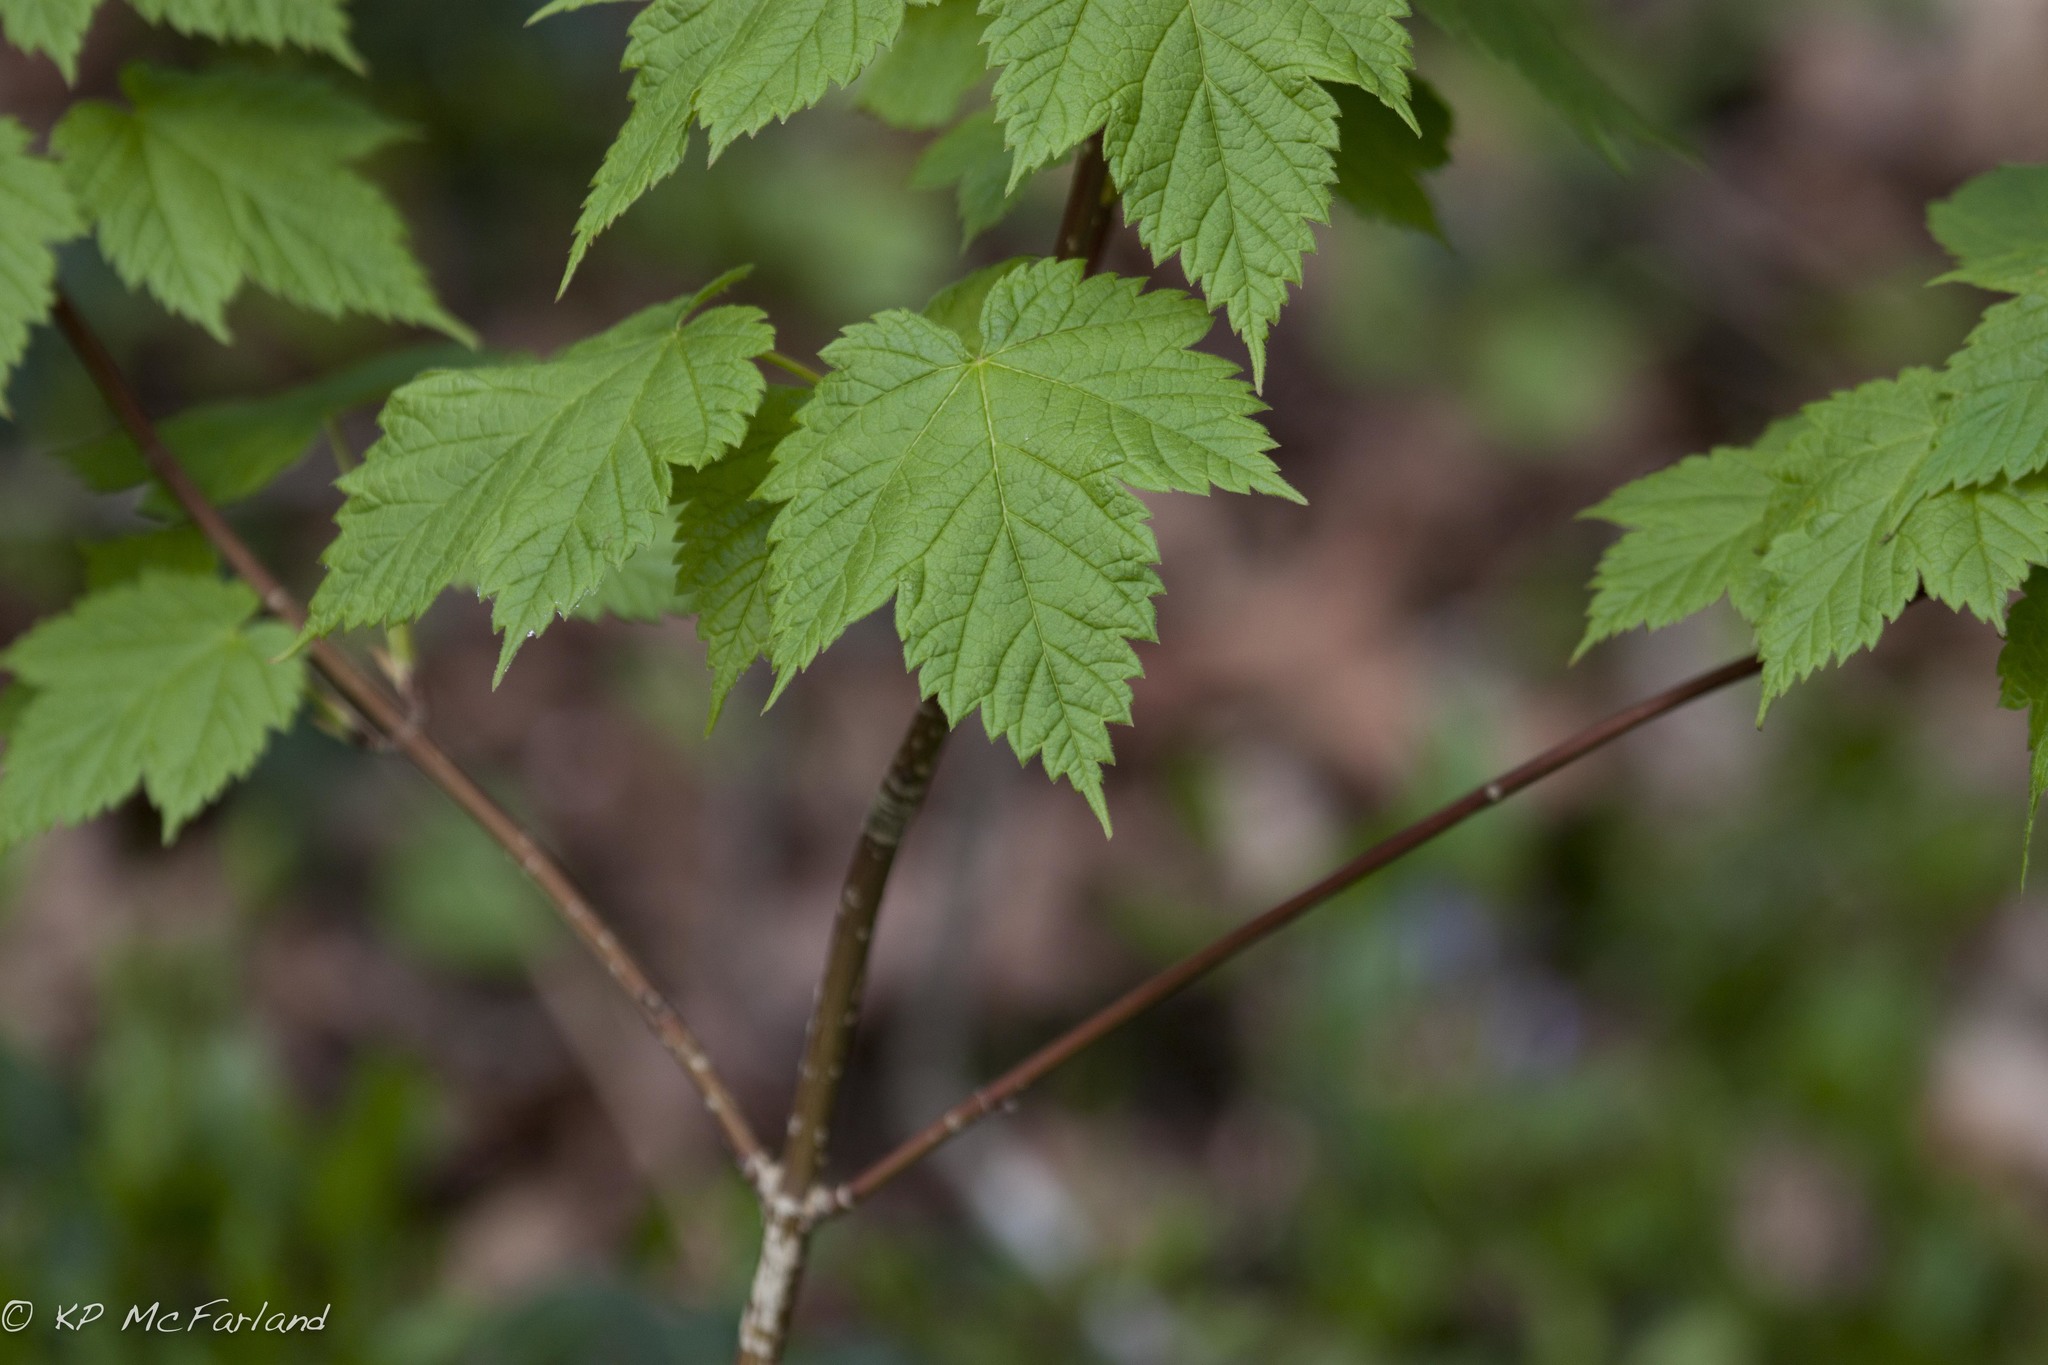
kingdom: Plantae
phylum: Tracheophyta
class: Magnoliopsida
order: Sapindales
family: Sapindaceae
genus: Acer
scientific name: Acer spicatum
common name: Mountain maple
